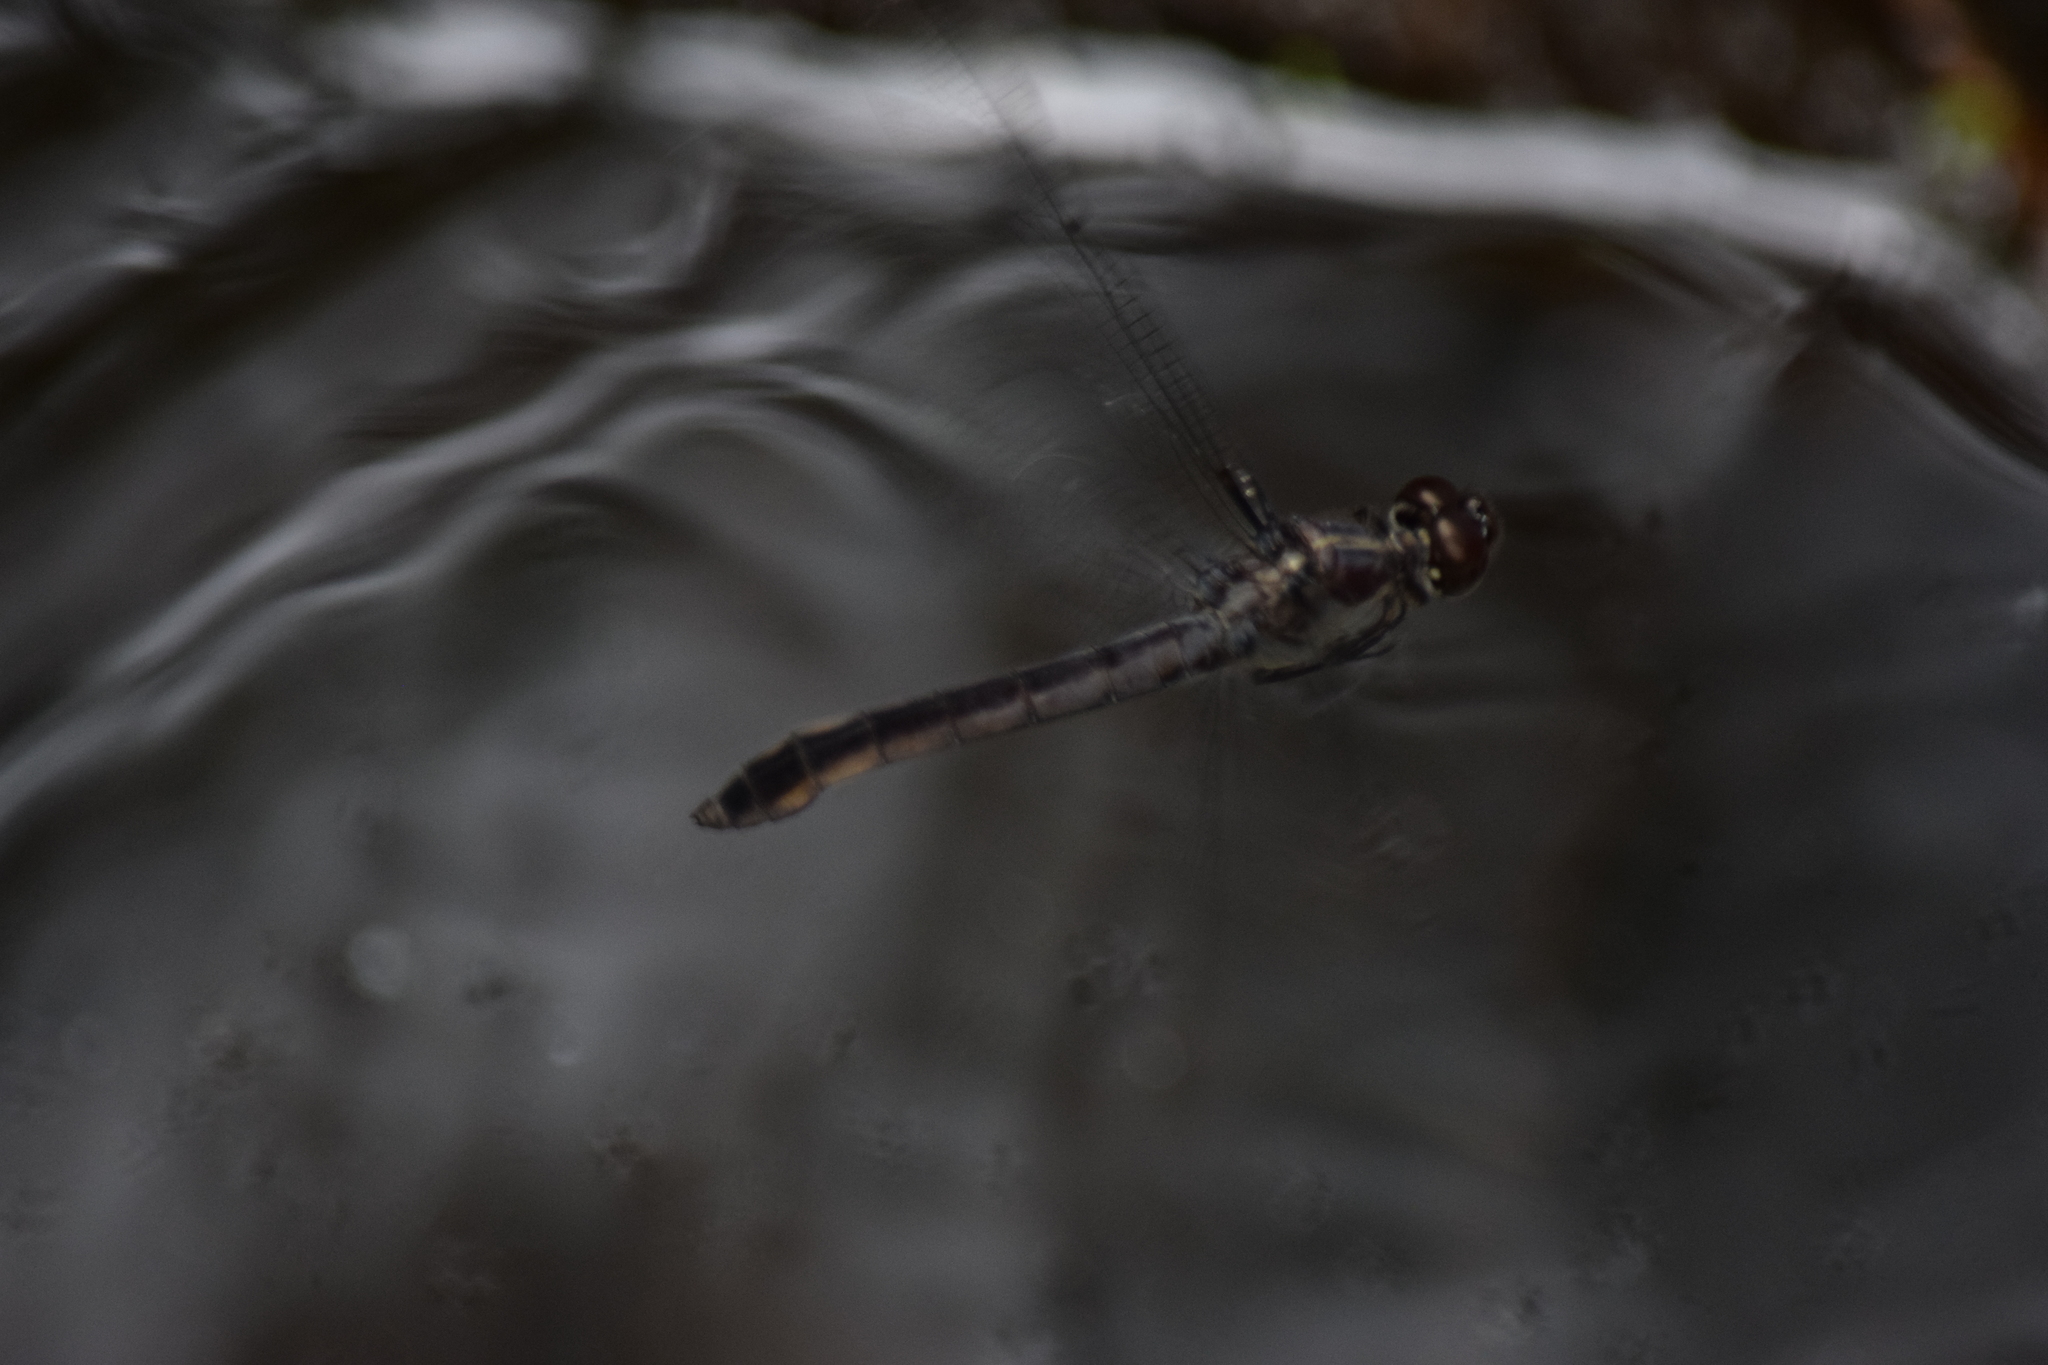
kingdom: Animalia
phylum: Arthropoda
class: Insecta
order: Odonata
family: Libellulidae
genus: Libellula
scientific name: Libellula incesta
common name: Slaty skimmer
